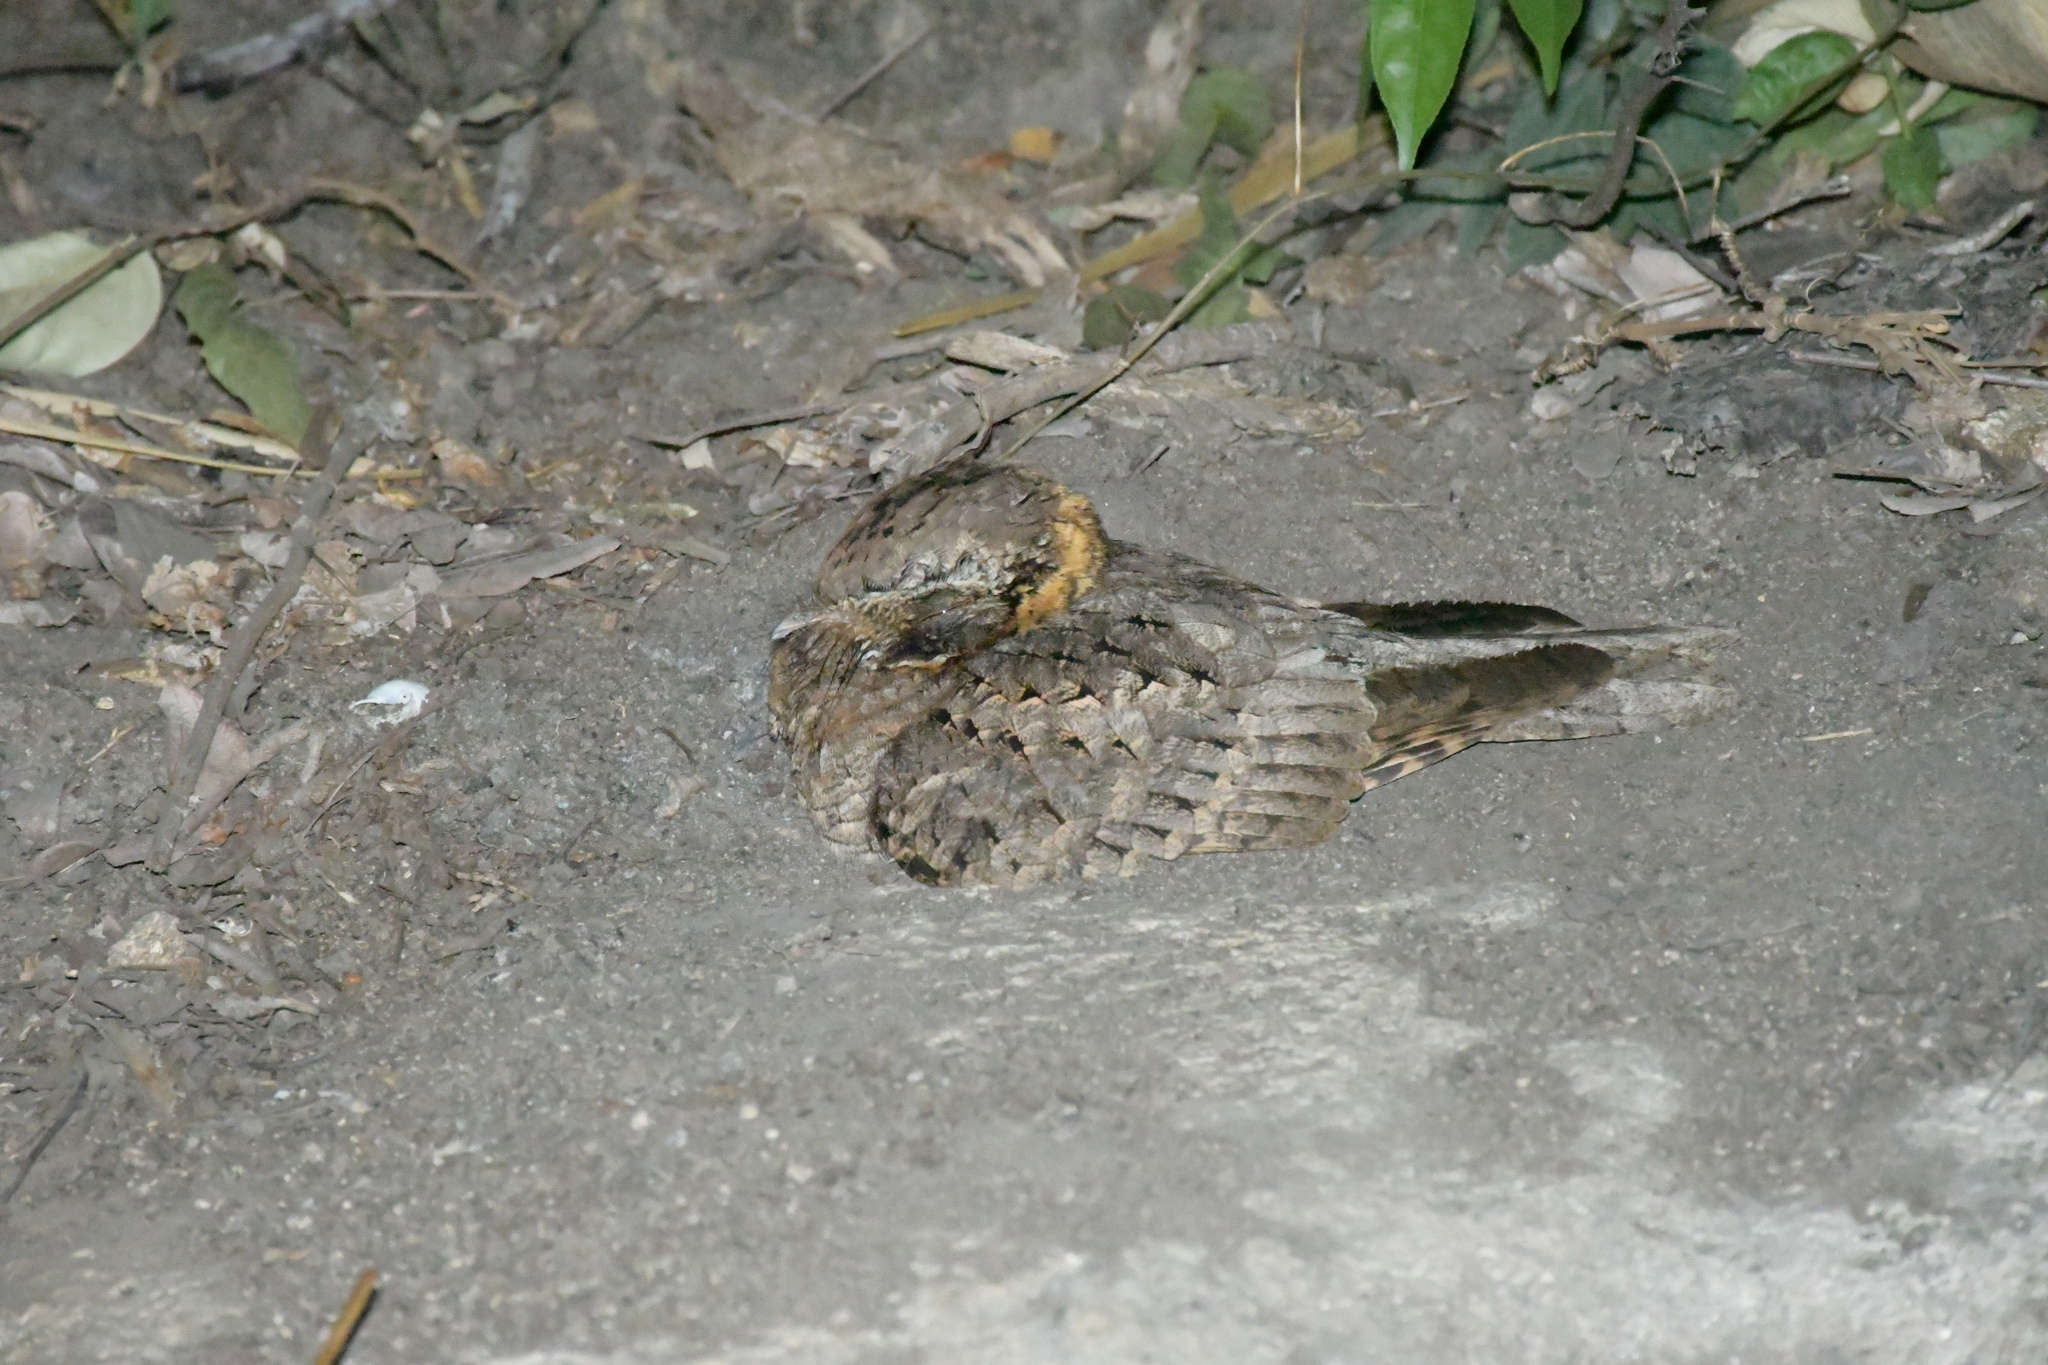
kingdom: Animalia
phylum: Chordata
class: Aves
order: Caprimulgiformes
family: Caprimulgidae
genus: Antrostomus
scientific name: Antrostomus ridgwayi
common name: Buff-collared nightjar
